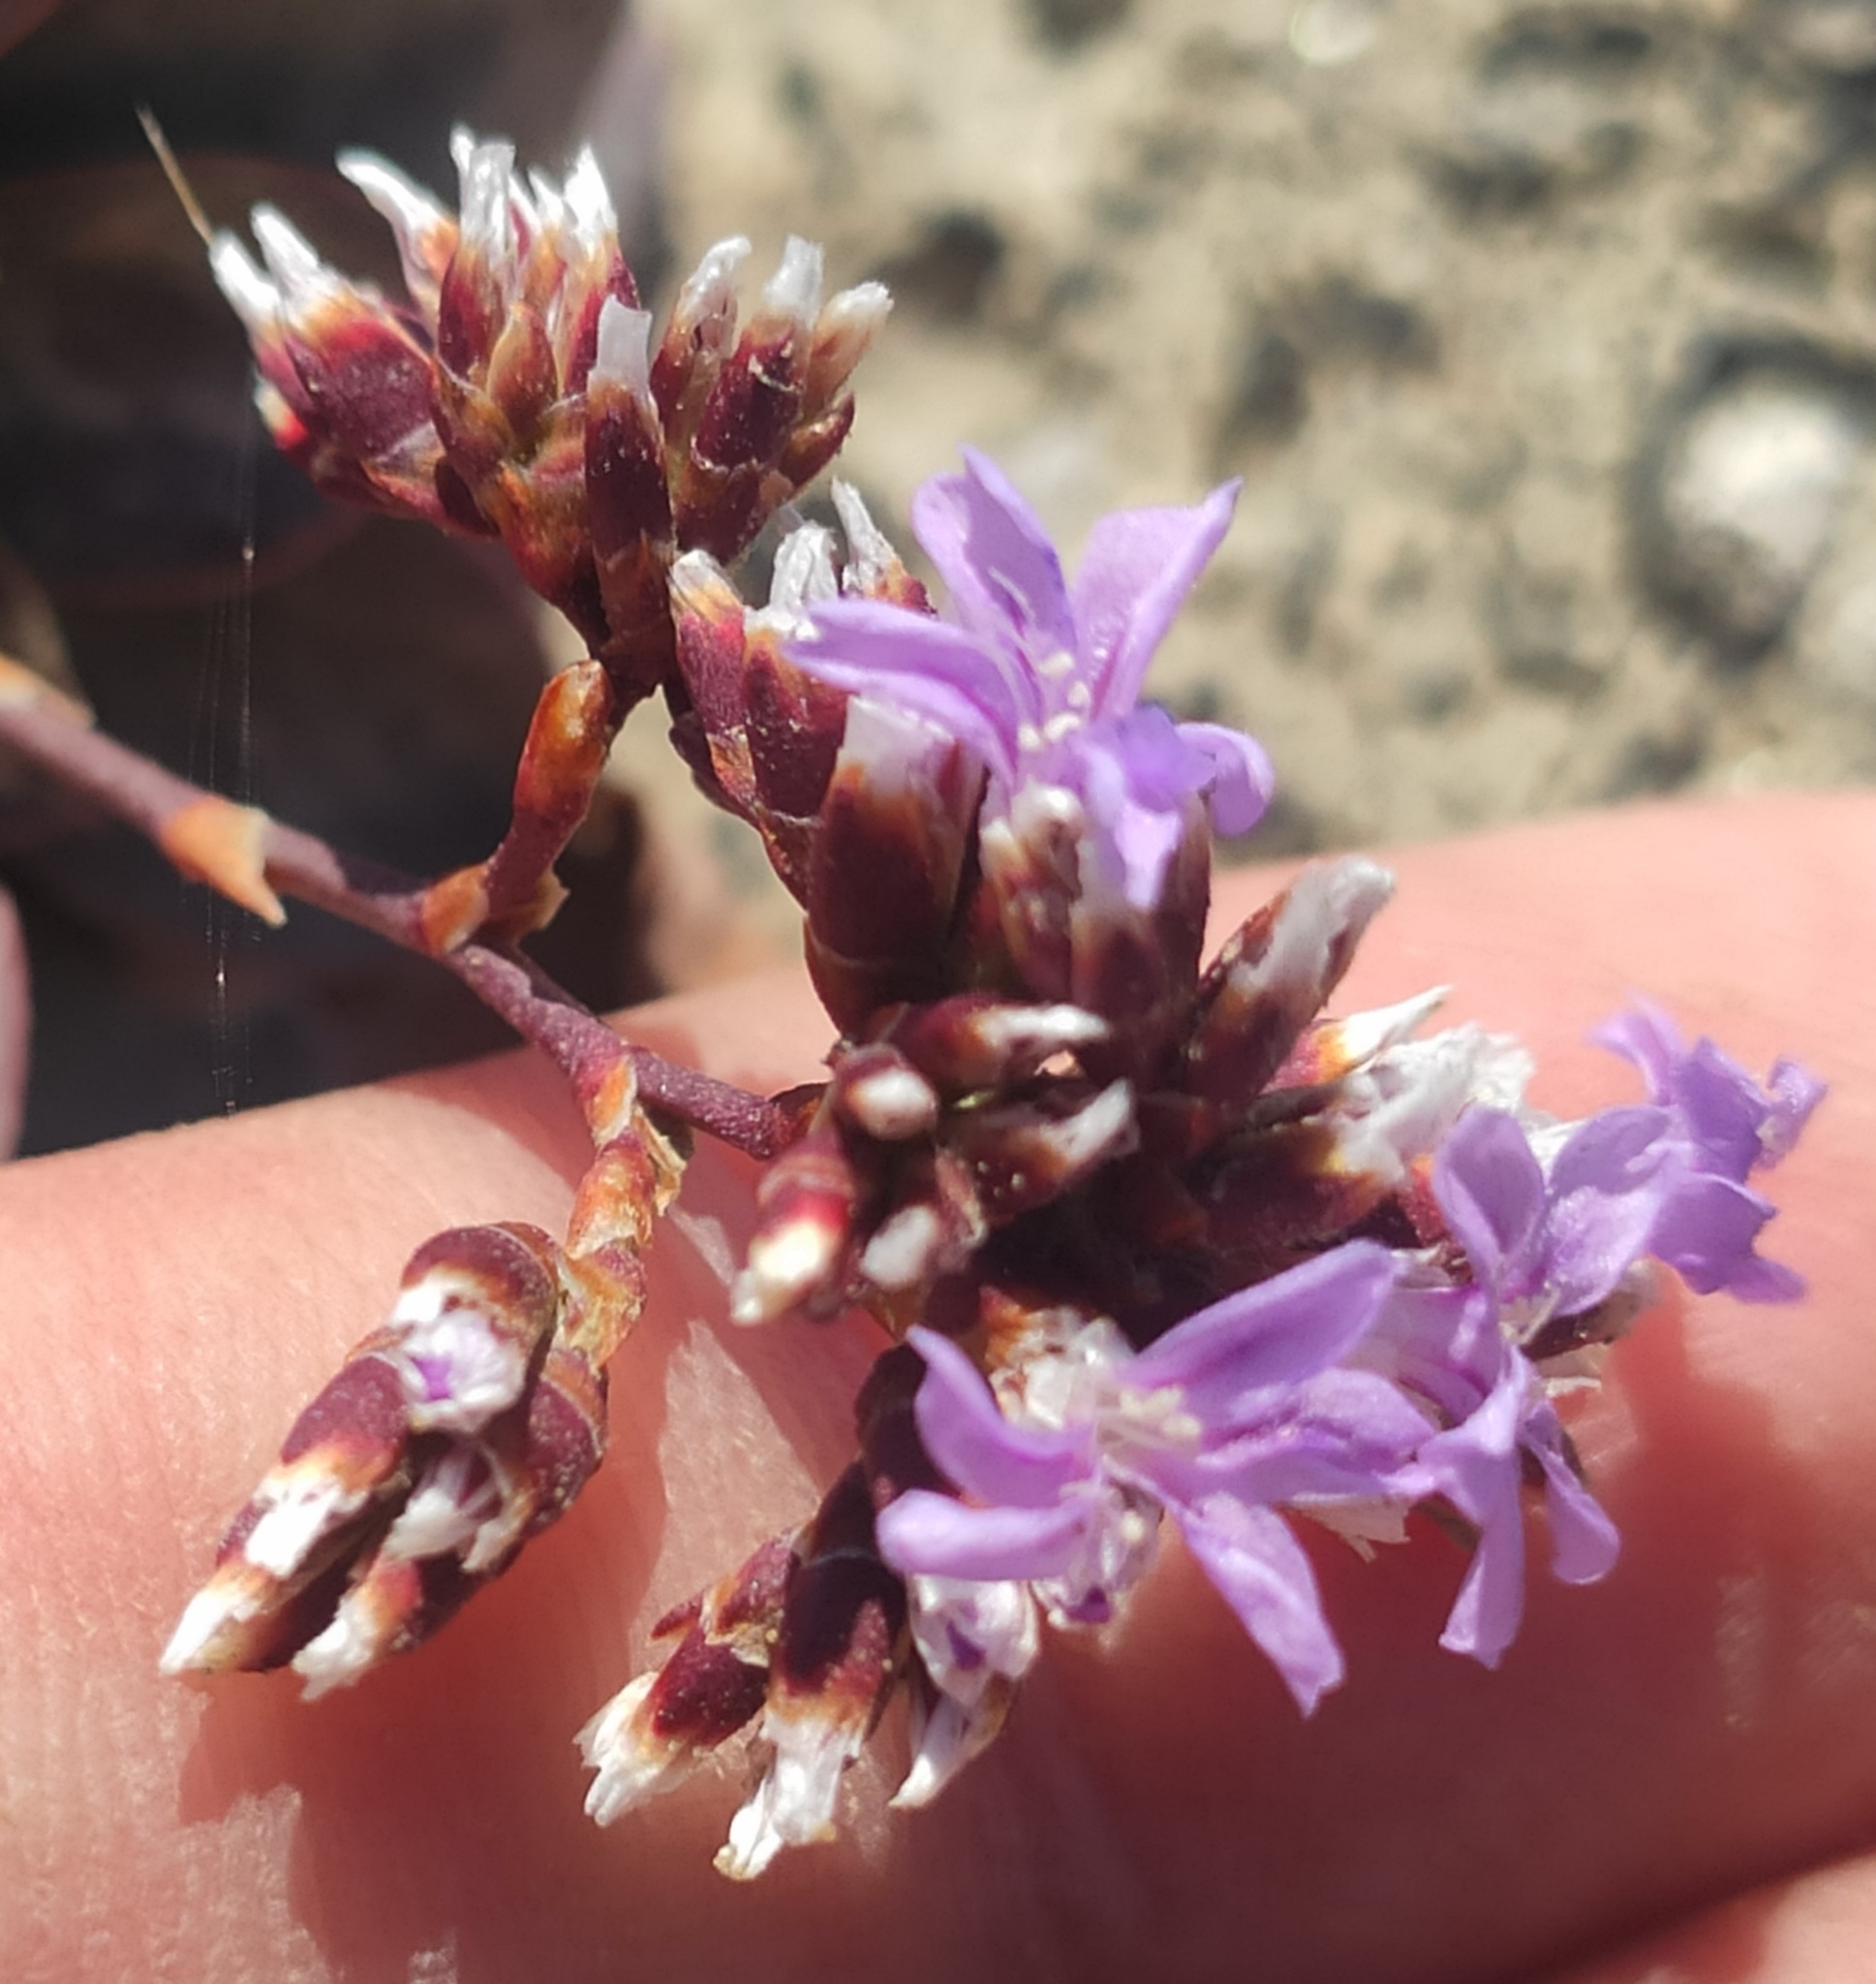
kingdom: Plantae
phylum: Tracheophyta
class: Magnoliopsida
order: Caryophyllales
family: Plumbaginaceae
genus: Limonium
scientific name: Limonium multiflorum
